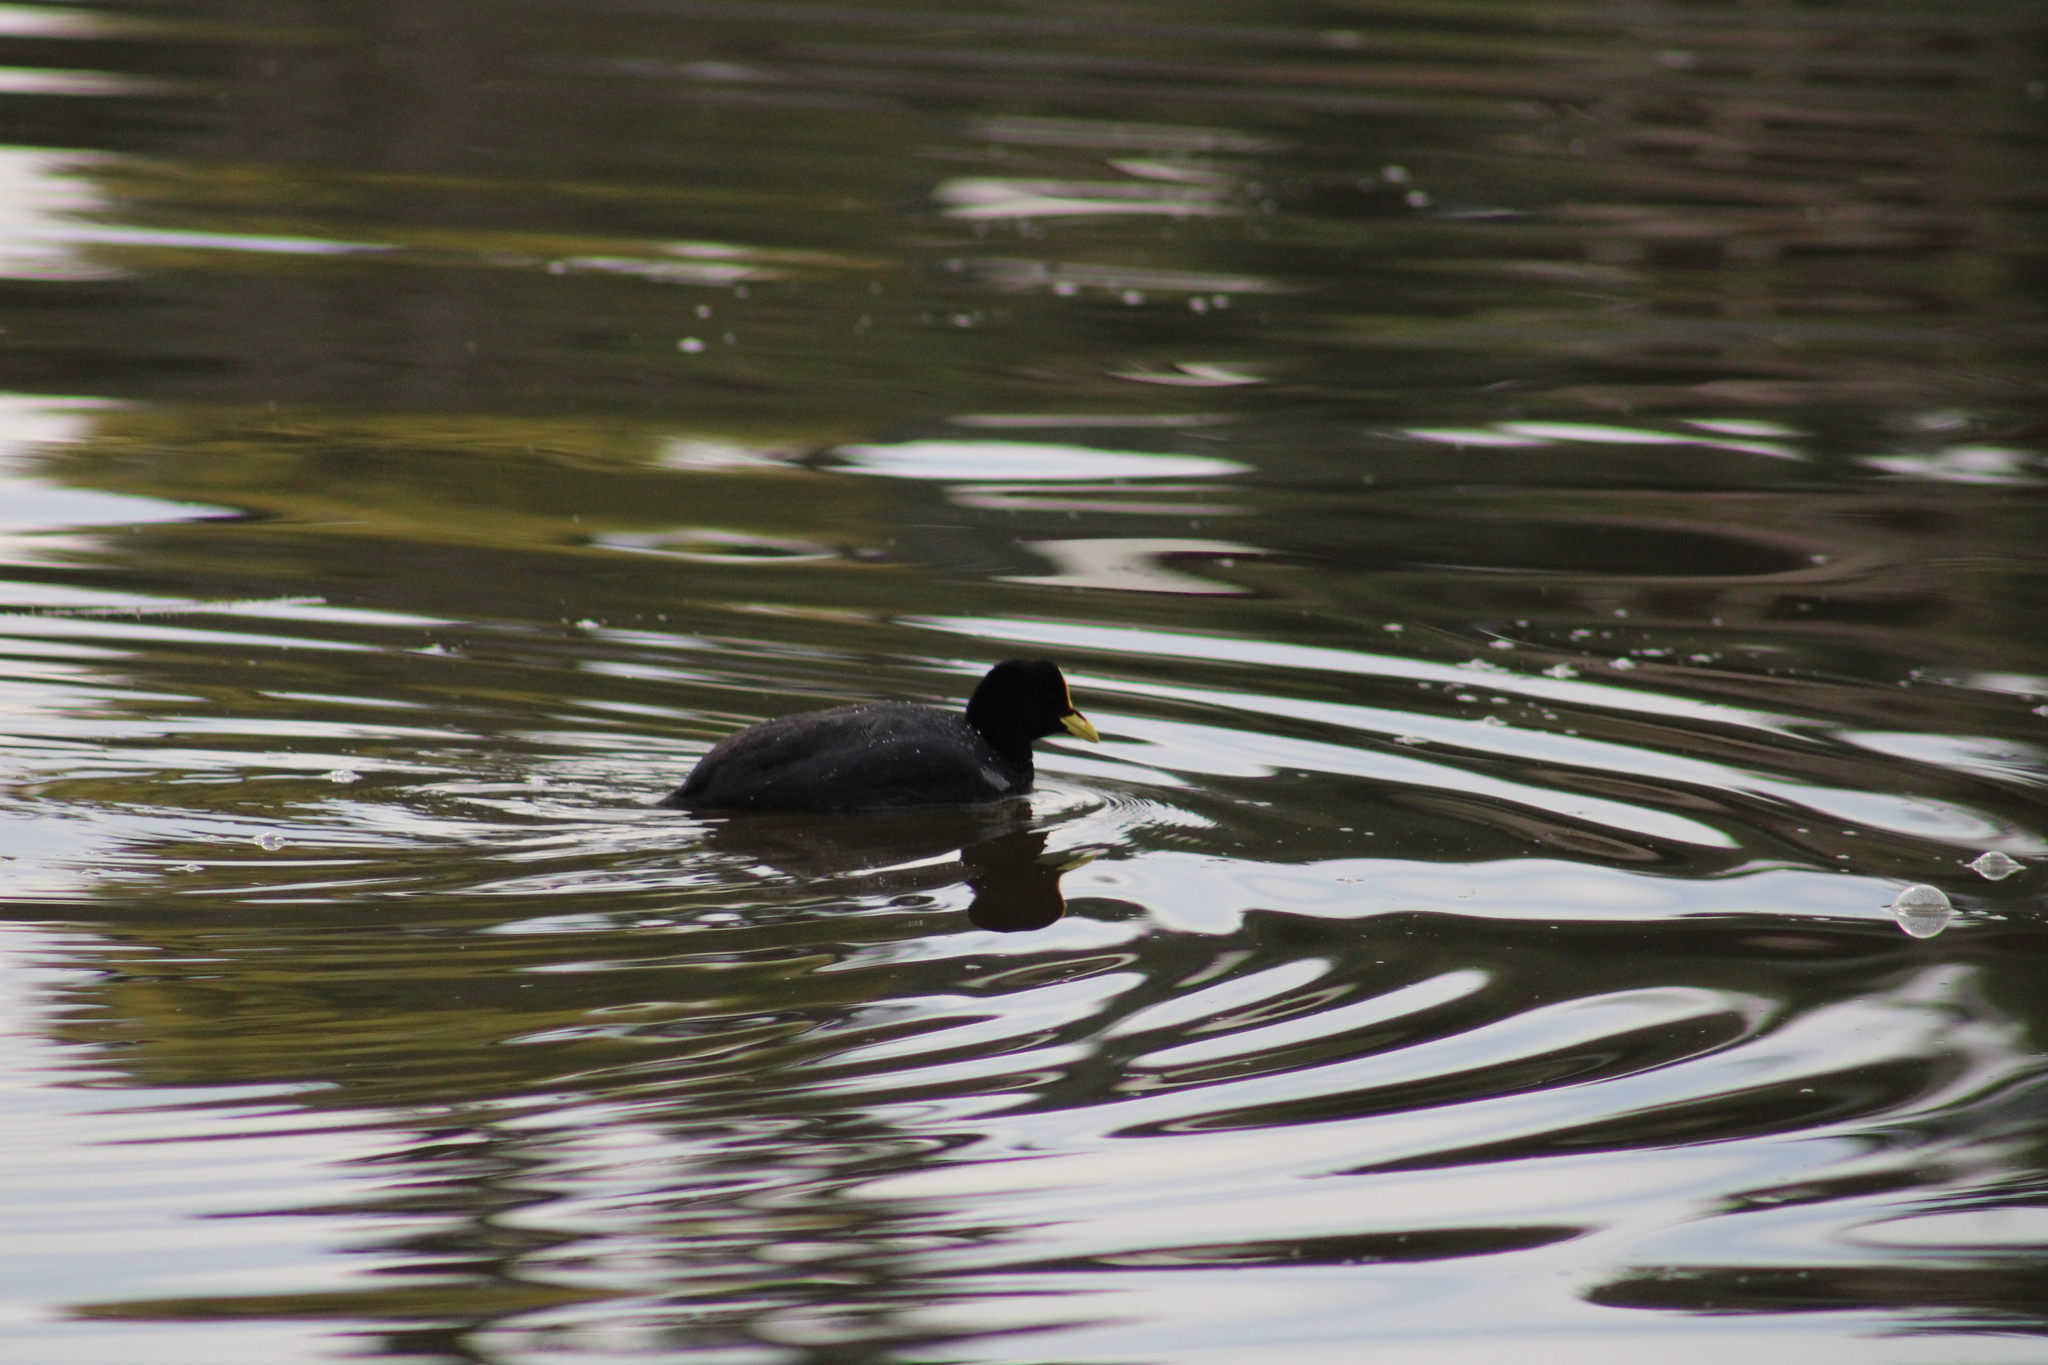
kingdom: Animalia
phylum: Chordata
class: Aves
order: Gruiformes
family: Rallidae
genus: Fulica
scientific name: Fulica armillata
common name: Red-gartered coot
